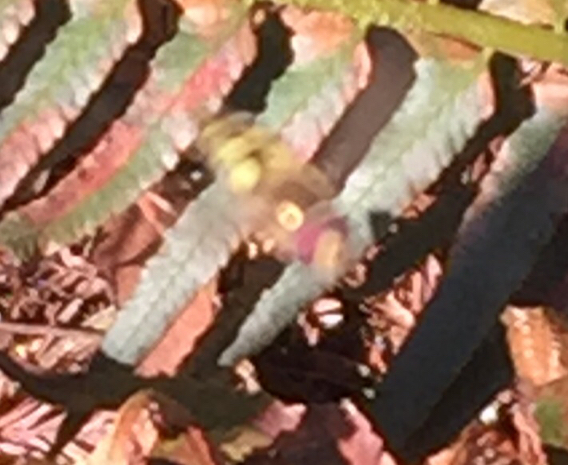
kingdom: Animalia
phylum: Arthropoda
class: Insecta
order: Diptera
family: Syrphidae
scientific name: Syrphidae
